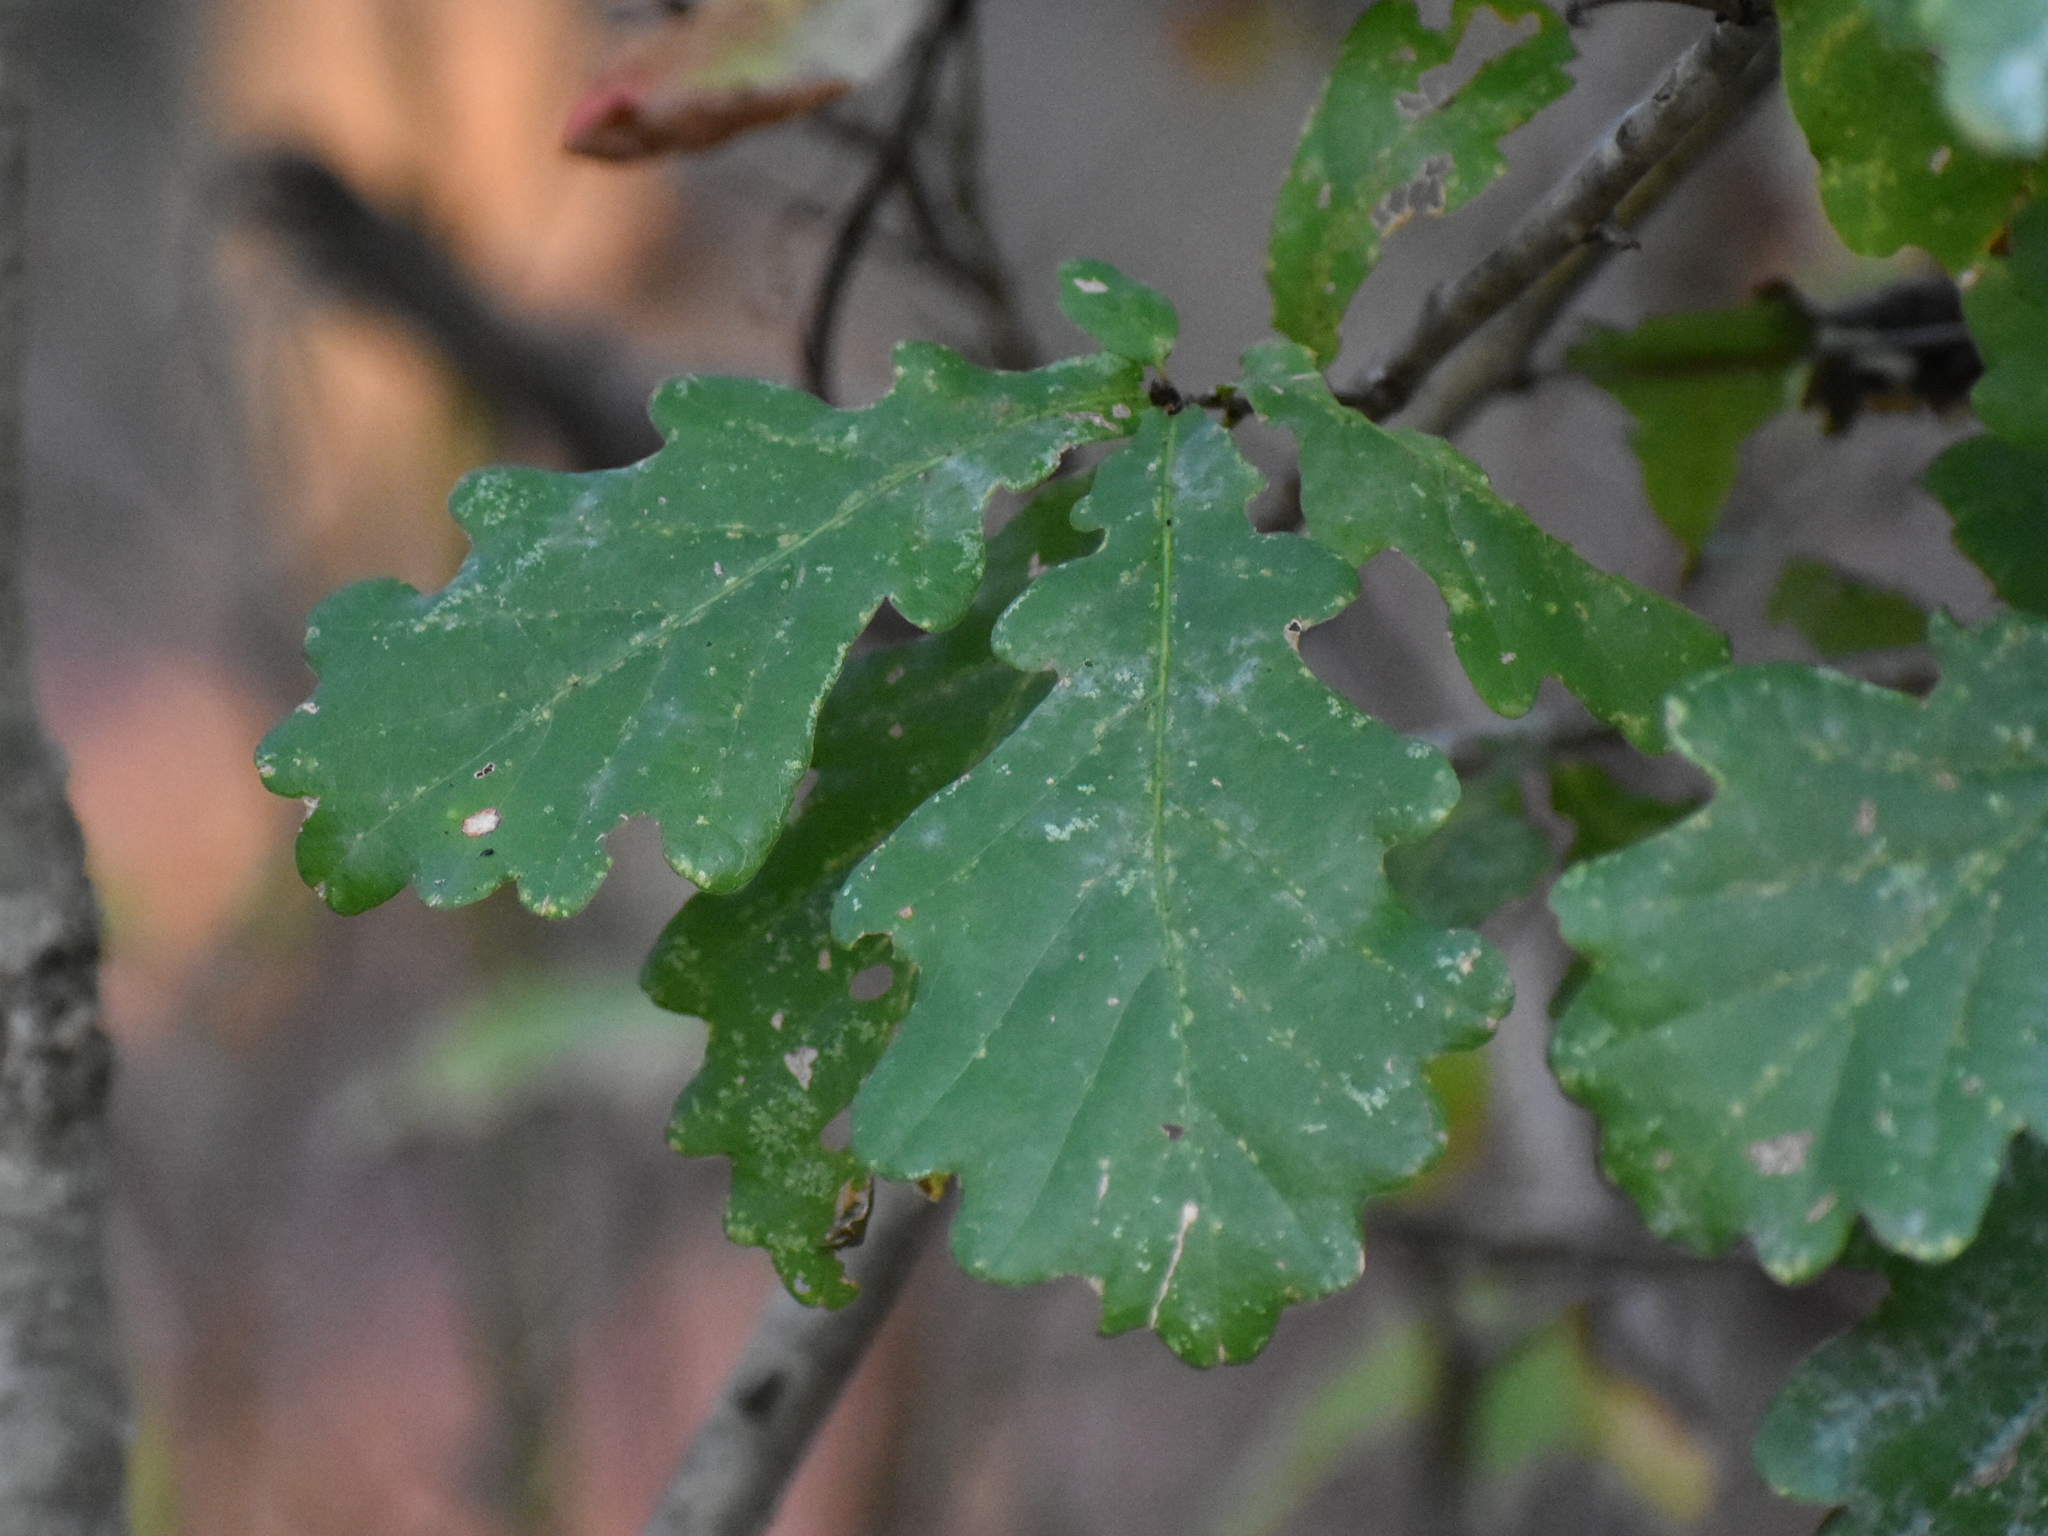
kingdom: Plantae
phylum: Tracheophyta
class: Magnoliopsida
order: Fagales
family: Fagaceae
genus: Quercus
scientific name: Quercus robur
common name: Pedunculate oak
